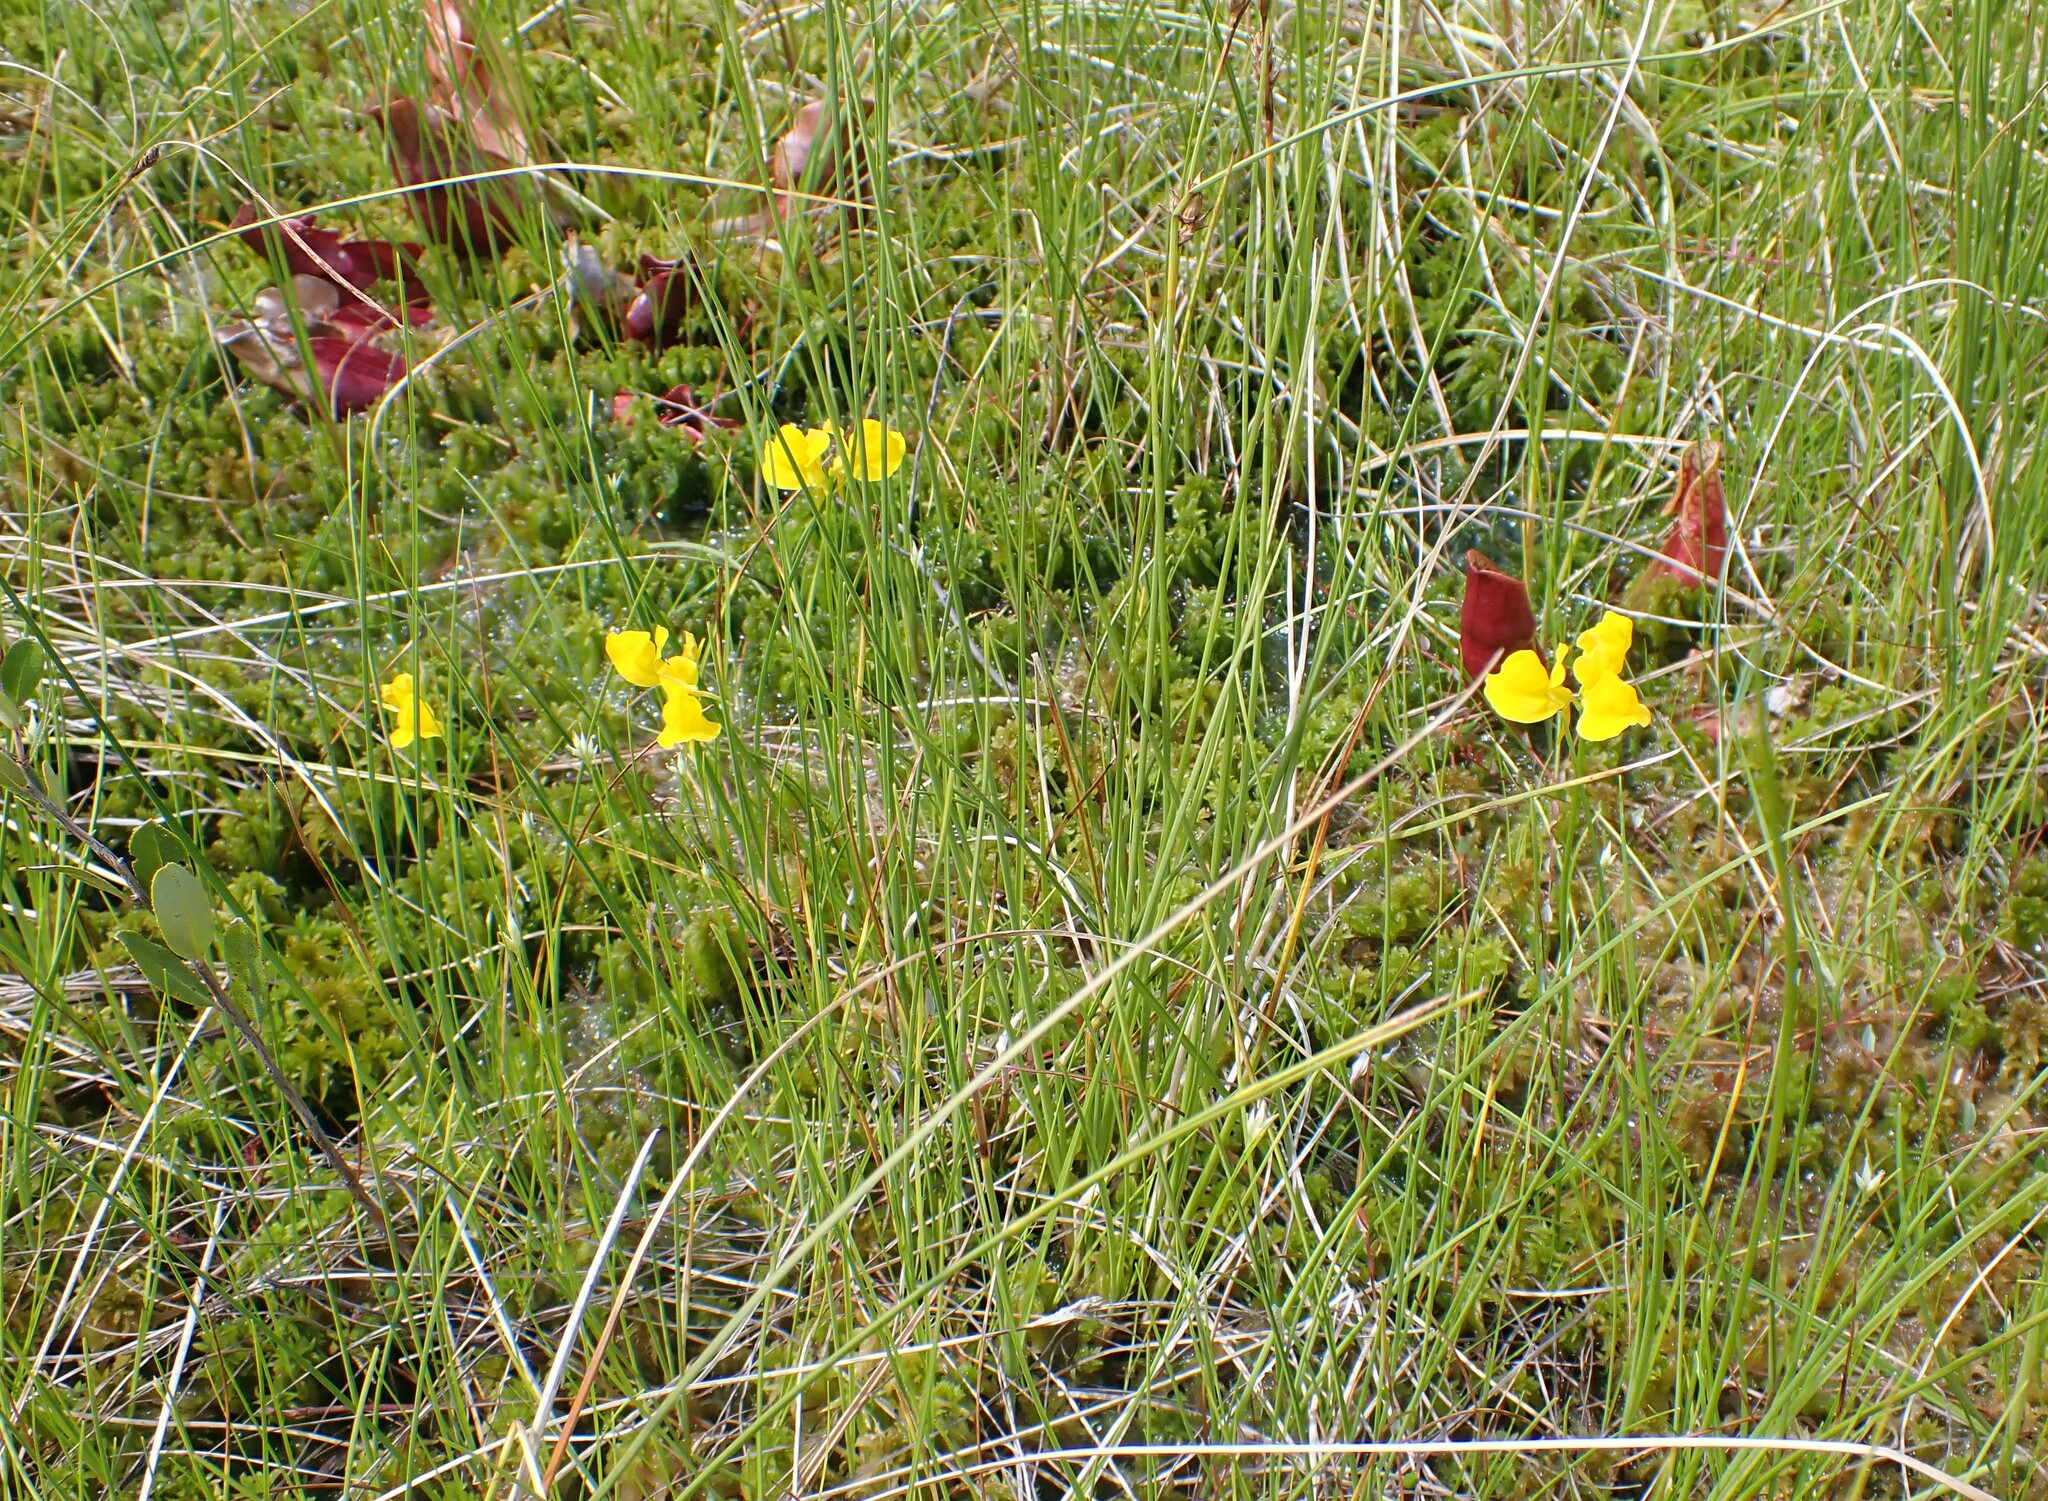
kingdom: Plantae
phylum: Tracheophyta
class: Magnoliopsida
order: Lamiales
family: Lentibulariaceae
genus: Utricularia
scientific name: Utricularia cornuta
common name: Horned bladderwort
